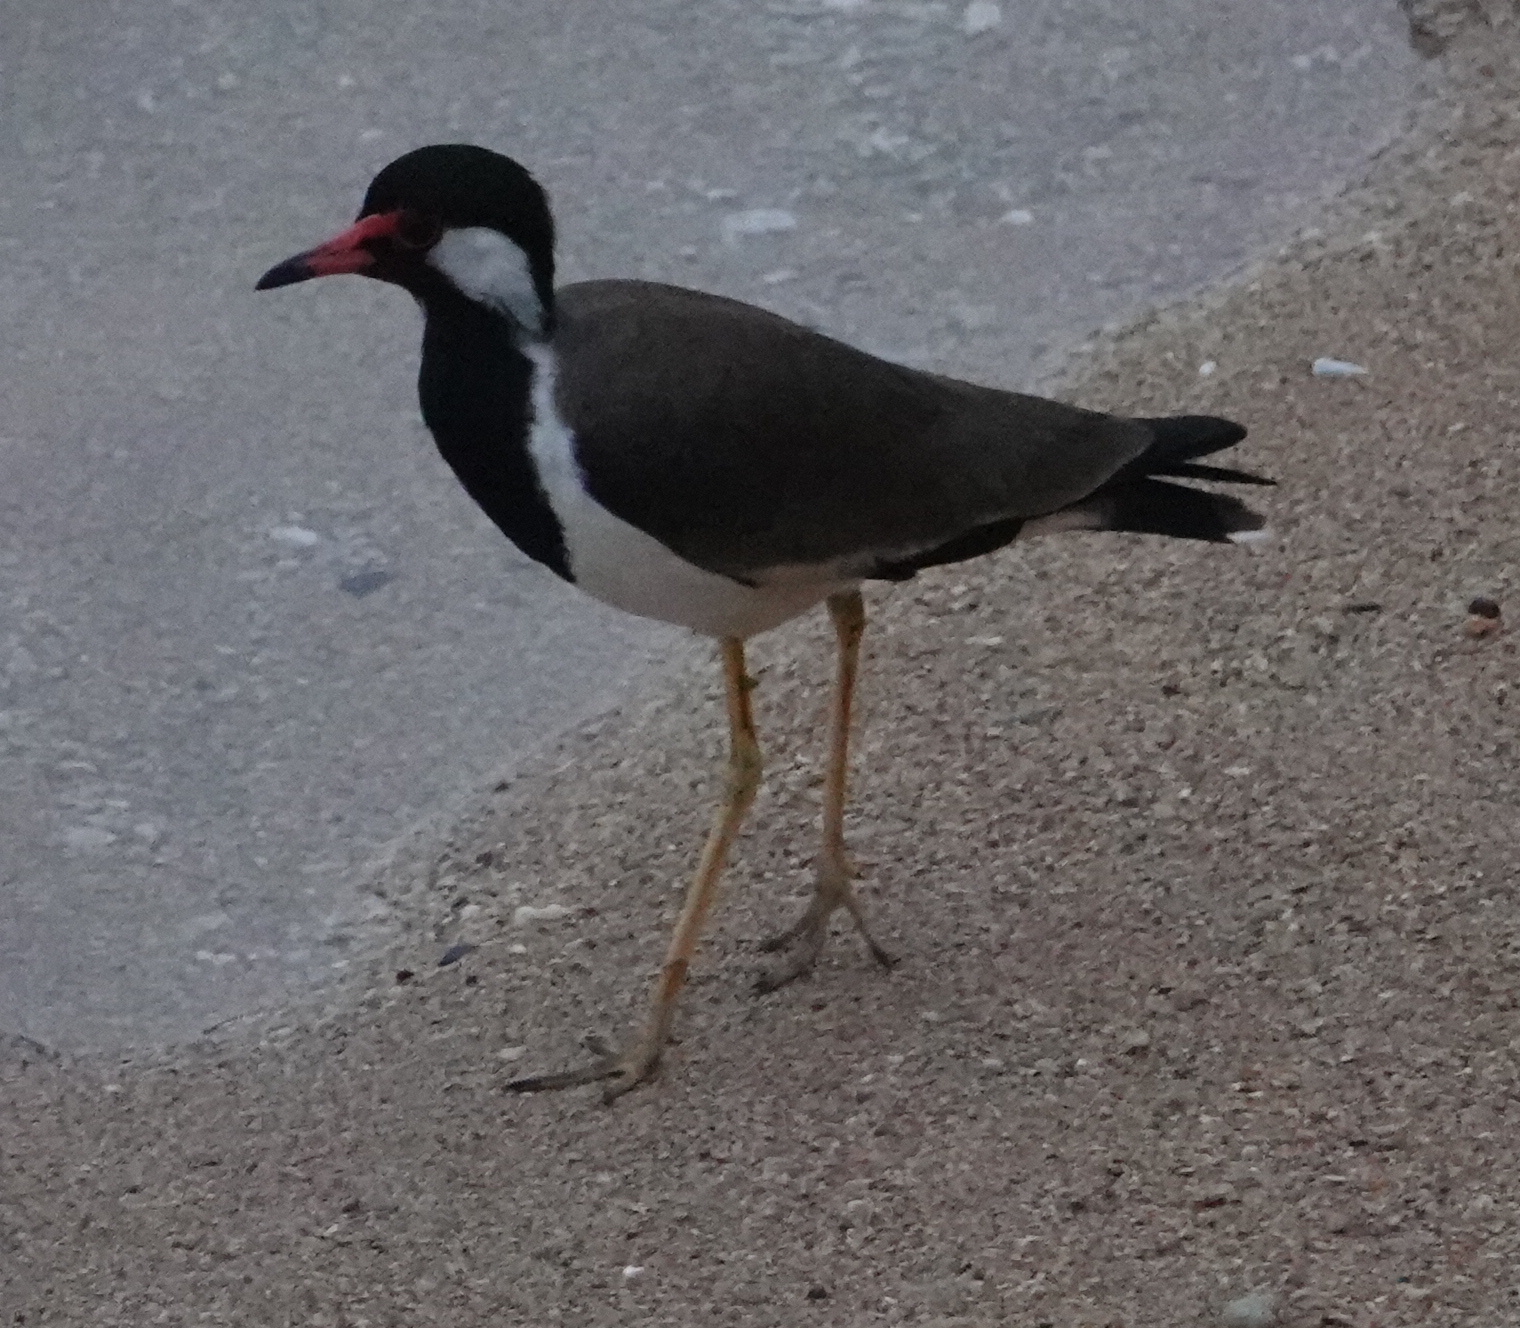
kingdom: Animalia
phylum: Chordata
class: Aves
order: Charadriiformes
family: Charadriidae
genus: Vanellus
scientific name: Vanellus indicus
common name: Red-wattled lapwing
